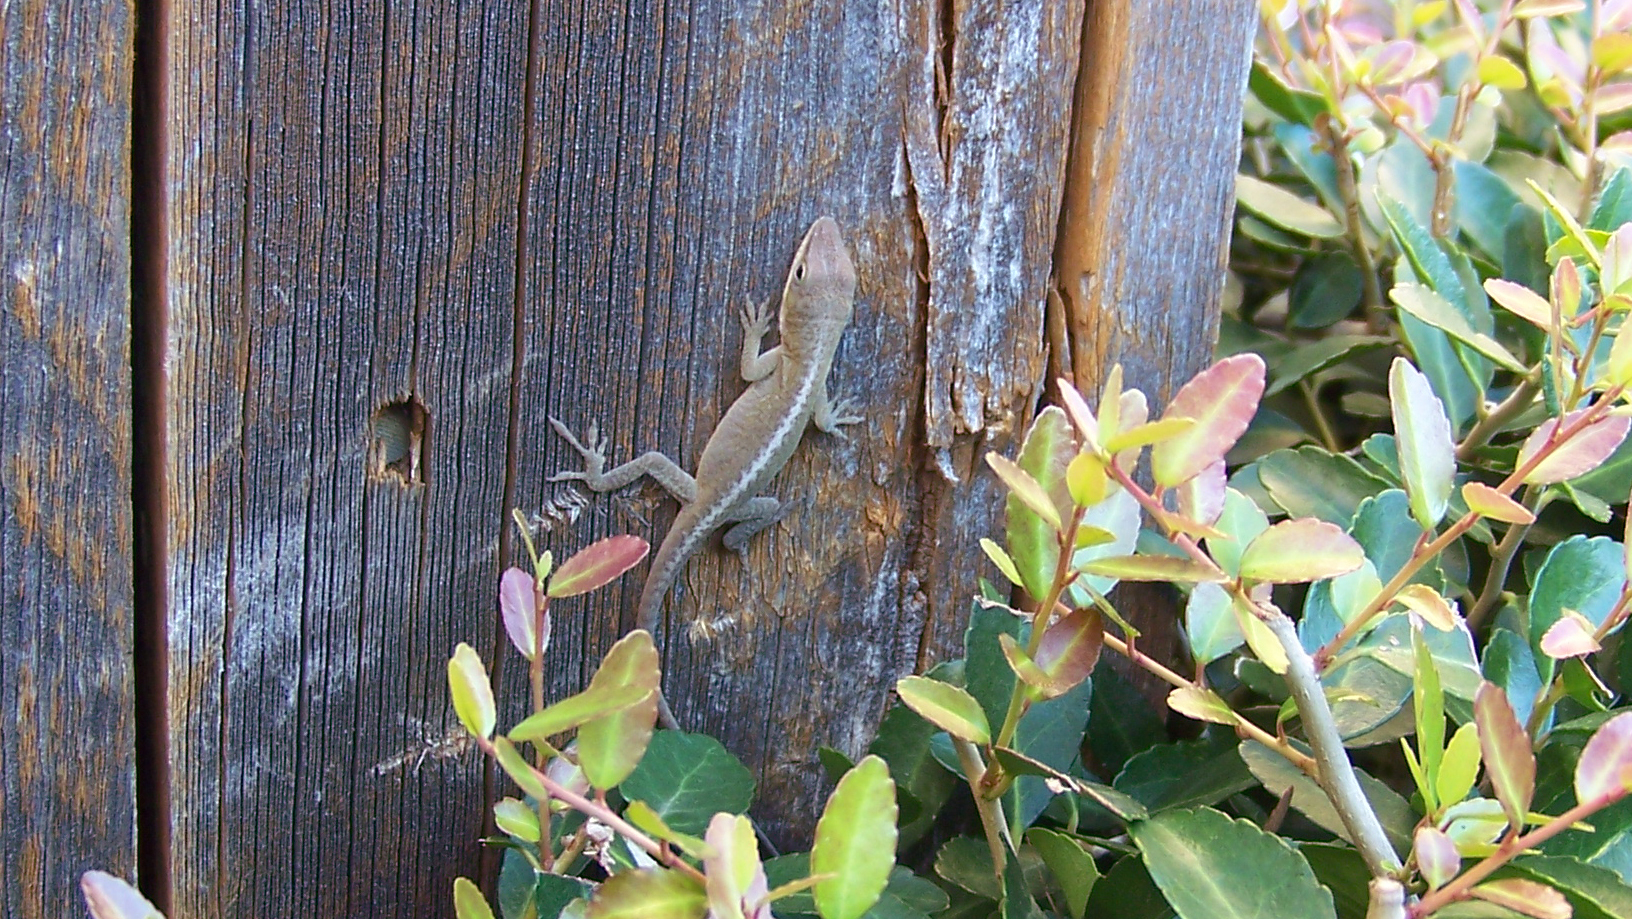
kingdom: Animalia
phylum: Chordata
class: Squamata
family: Dactyloidae
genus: Anolis
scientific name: Anolis carolinensis
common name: Green anole
